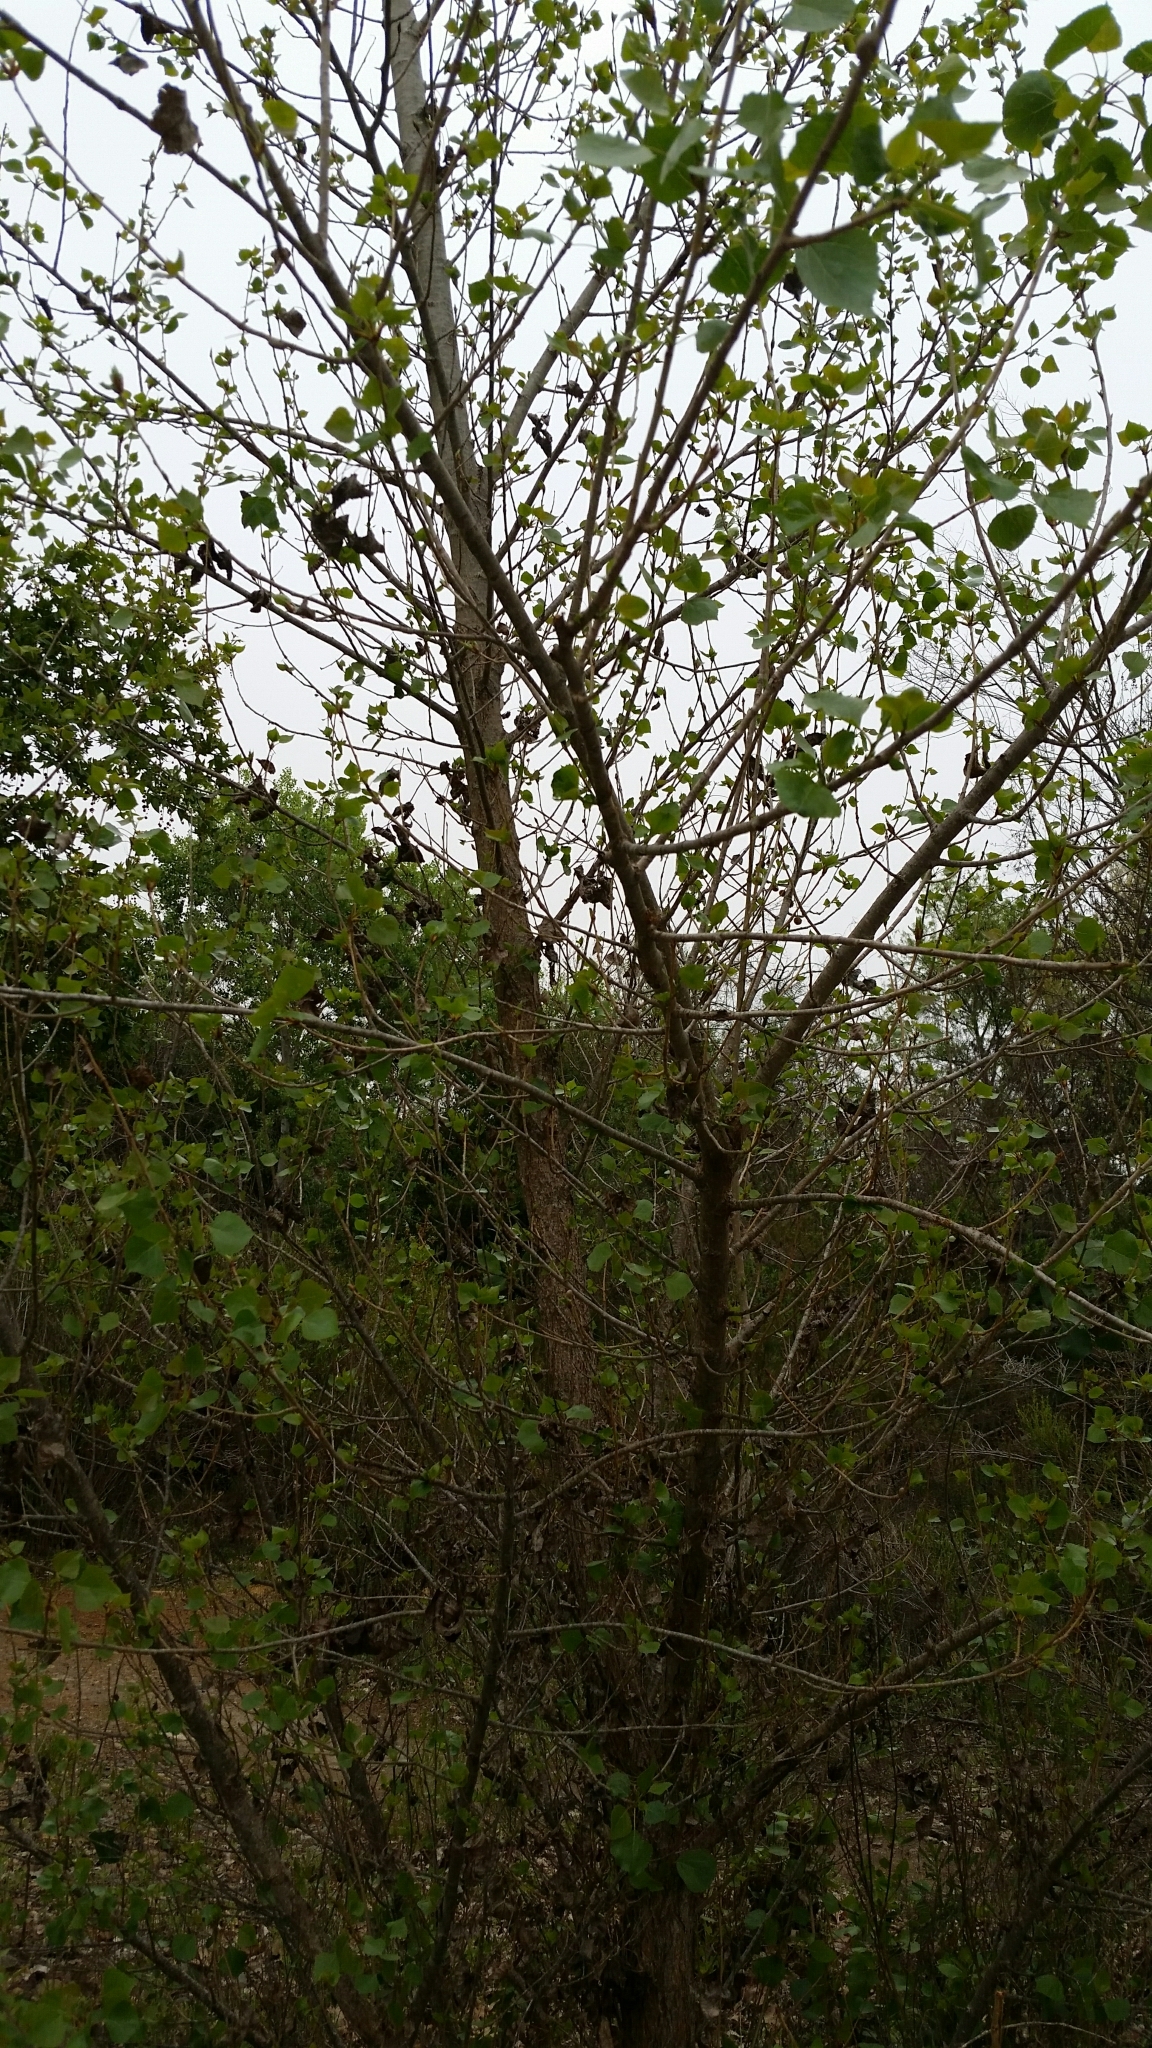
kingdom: Plantae
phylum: Tracheophyta
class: Magnoliopsida
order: Malpighiales
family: Salicaceae
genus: Populus
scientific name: Populus fremontii
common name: Fremont's cottonwood
